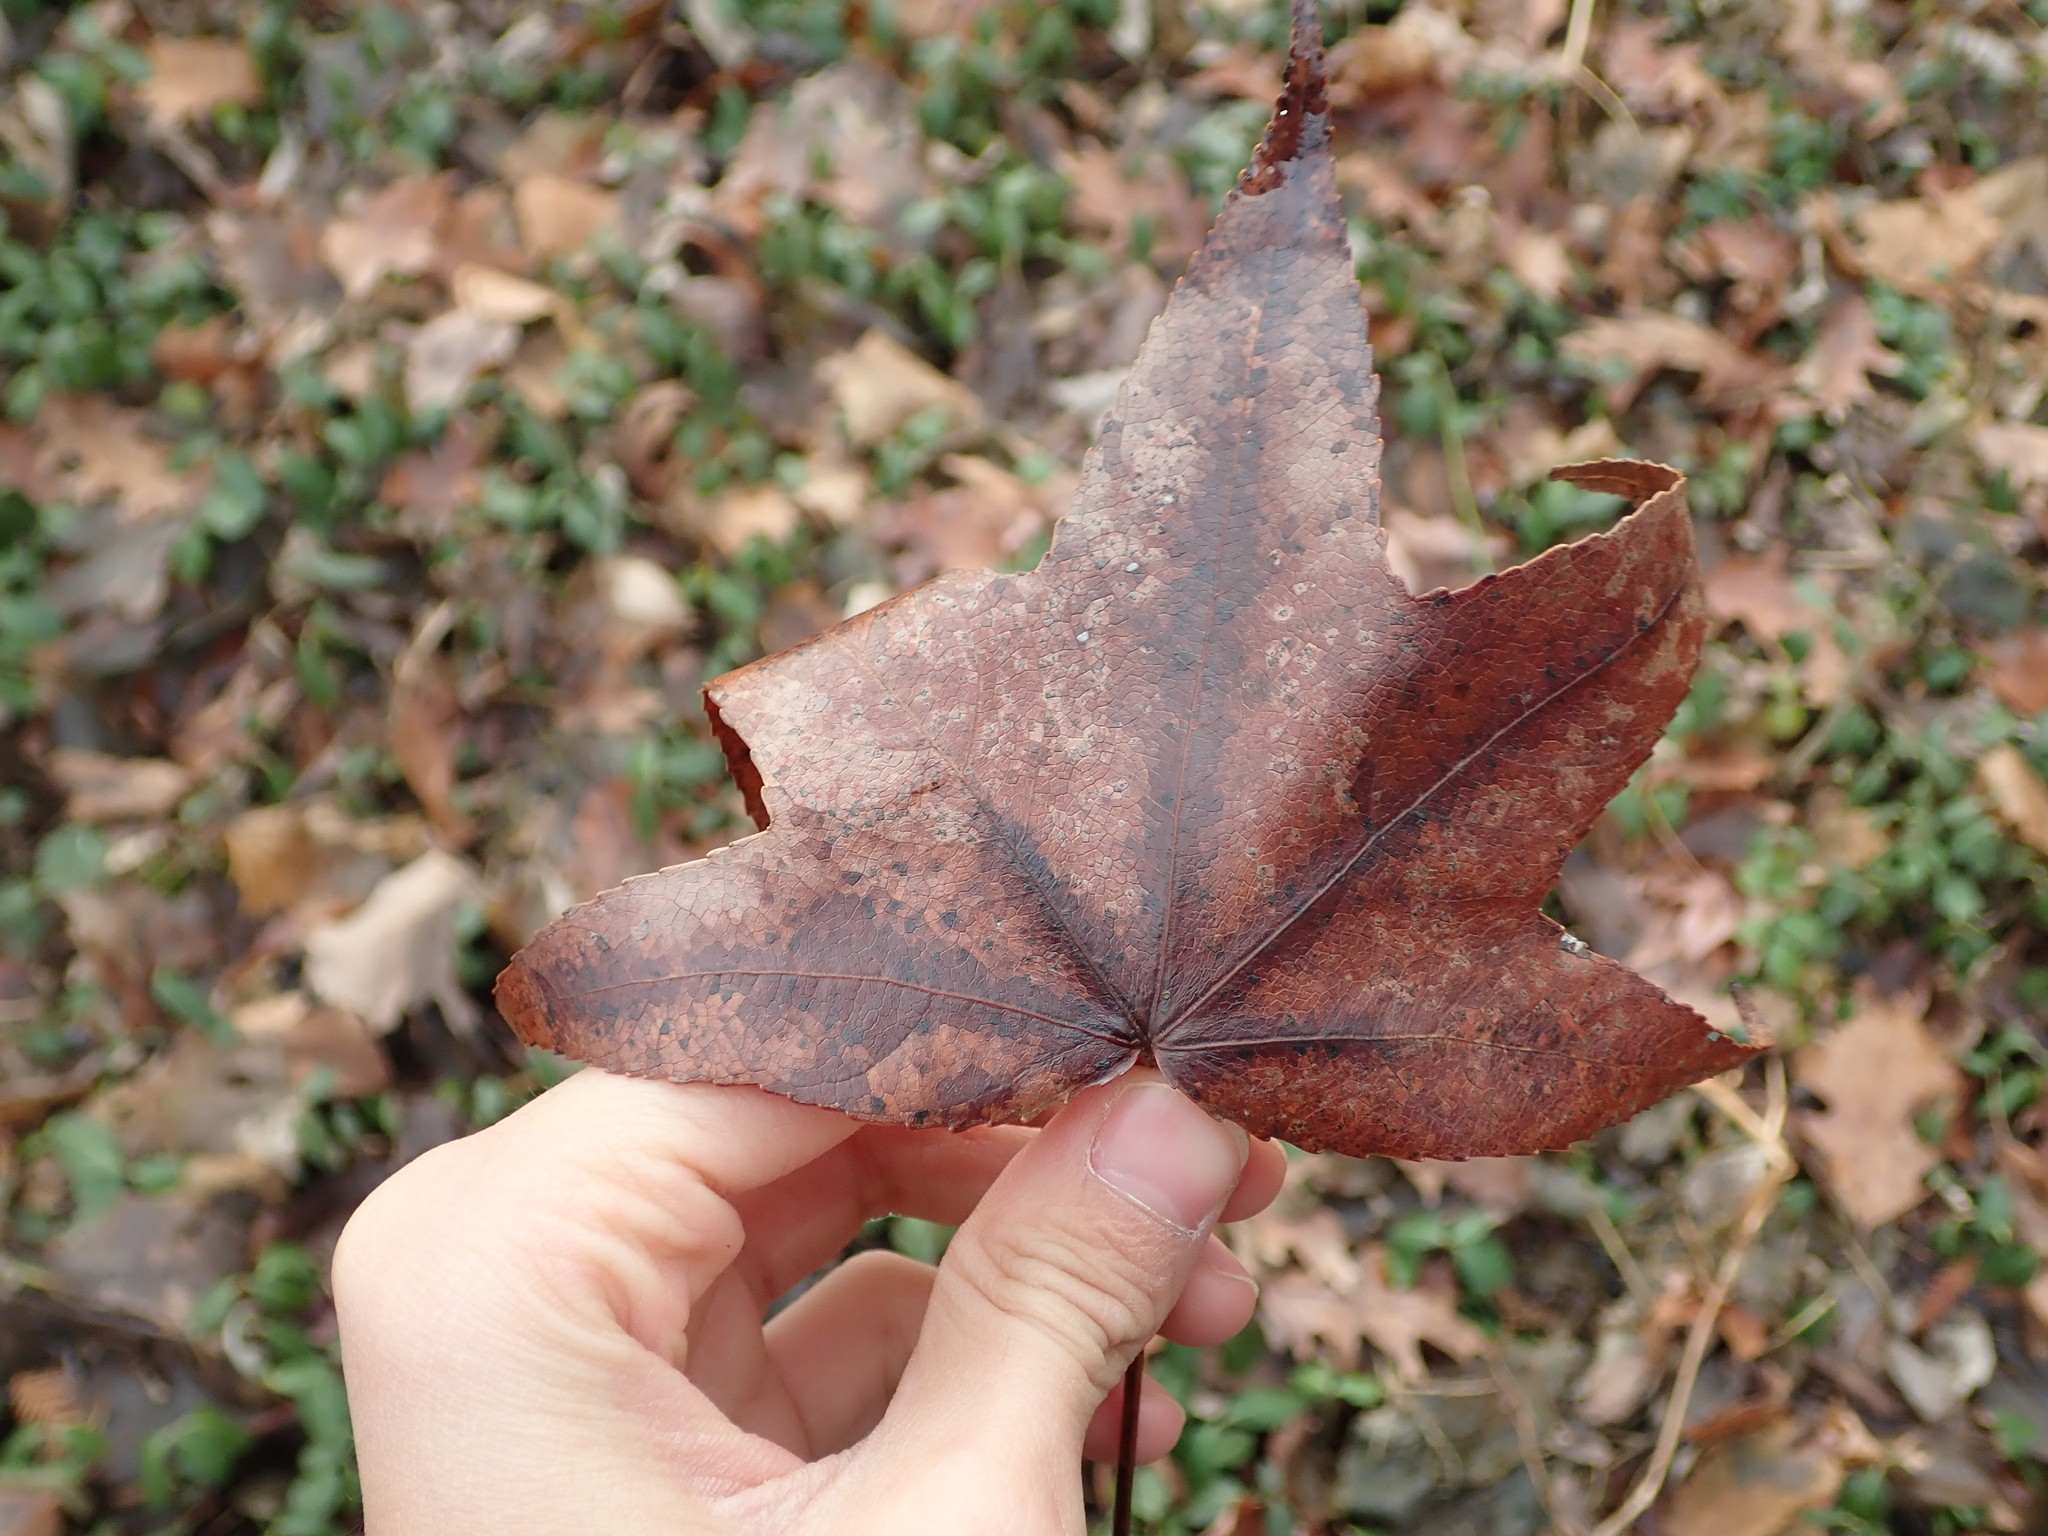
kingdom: Plantae
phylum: Tracheophyta
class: Magnoliopsida
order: Saxifragales
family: Altingiaceae
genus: Liquidambar
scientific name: Liquidambar styraciflua
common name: Sweet gum
